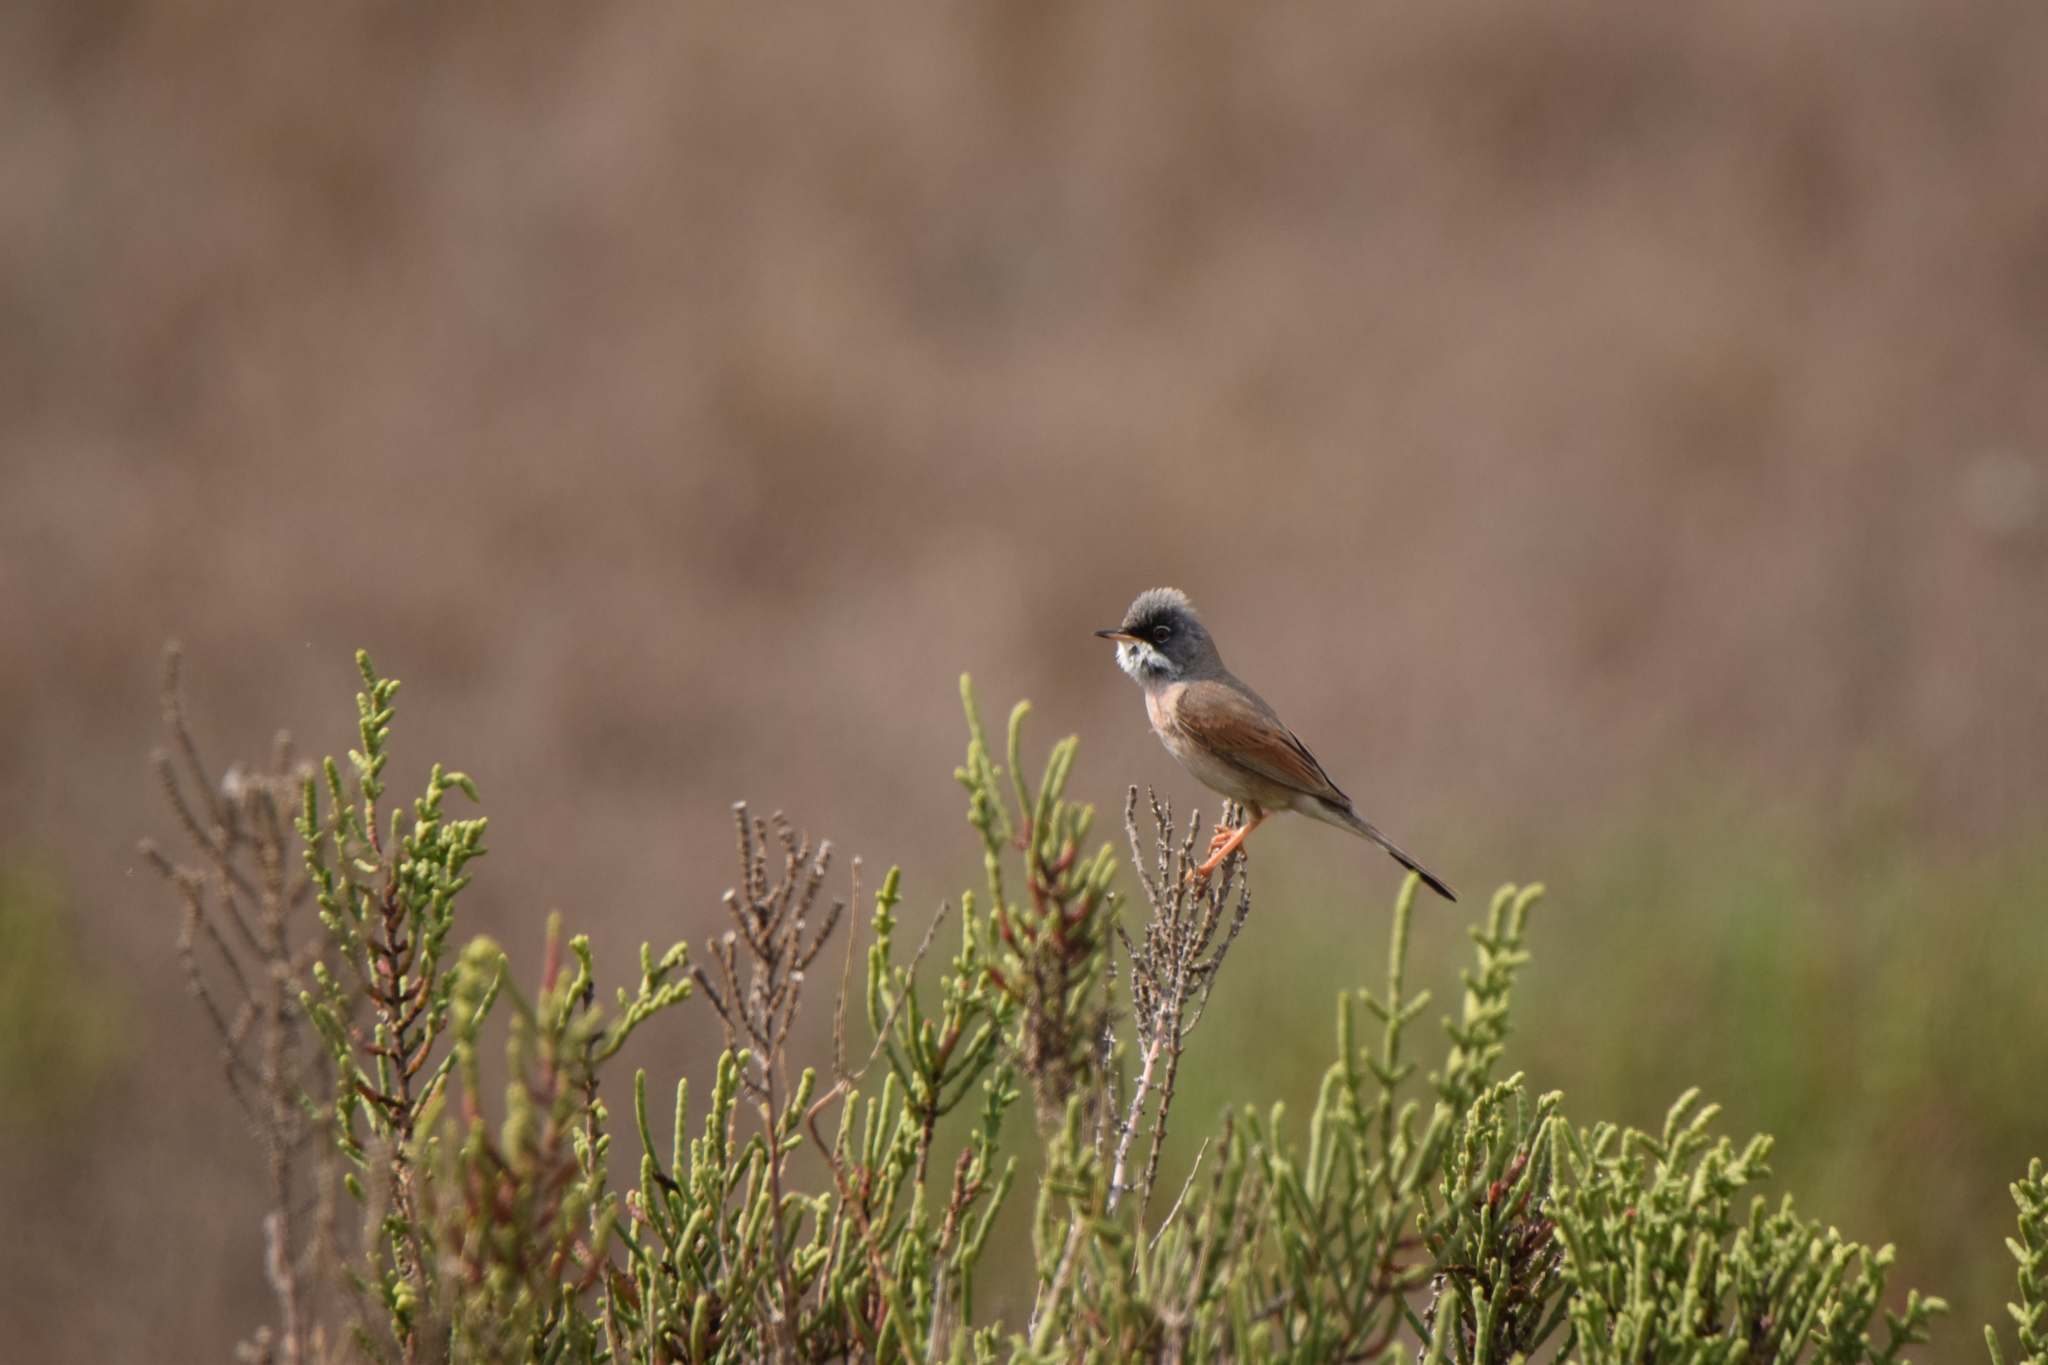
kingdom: Animalia
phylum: Chordata
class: Aves
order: Passeriformes
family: Sylviidae
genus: Sylvia
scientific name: Sylvia conspicillata
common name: Spectacled warbler
